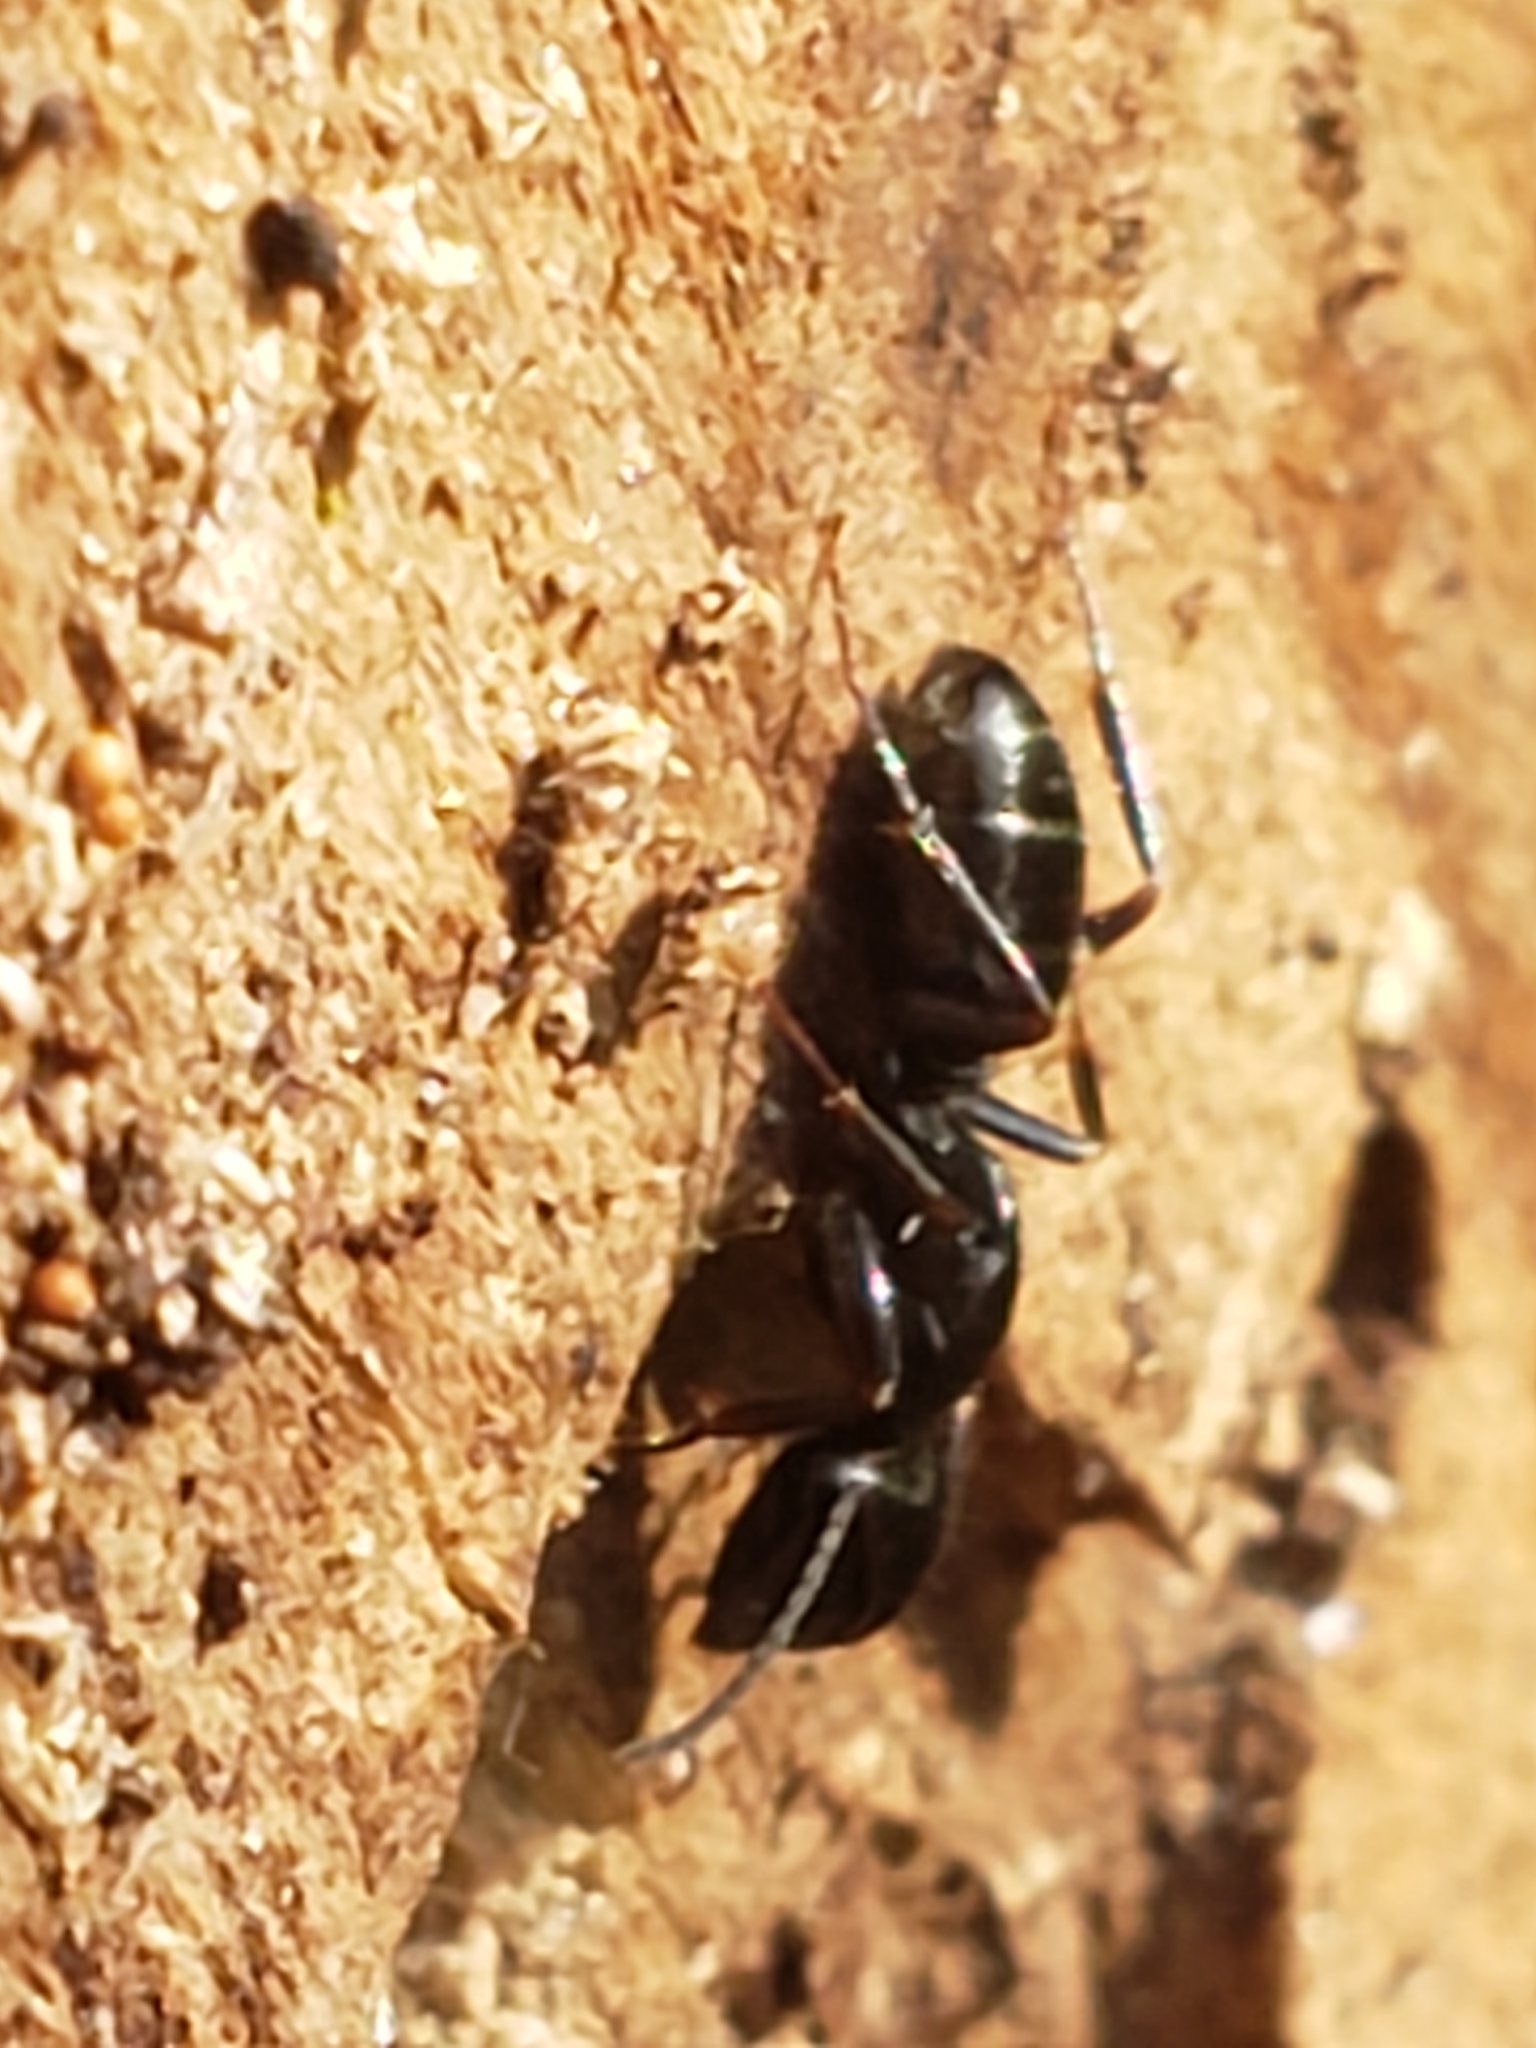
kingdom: Animalia
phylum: Arthropoda
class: Insecta
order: Hymenoptera
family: Formicidae
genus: Camponotus
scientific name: Camponotus nearcticus
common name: Smaller carpenter ant
